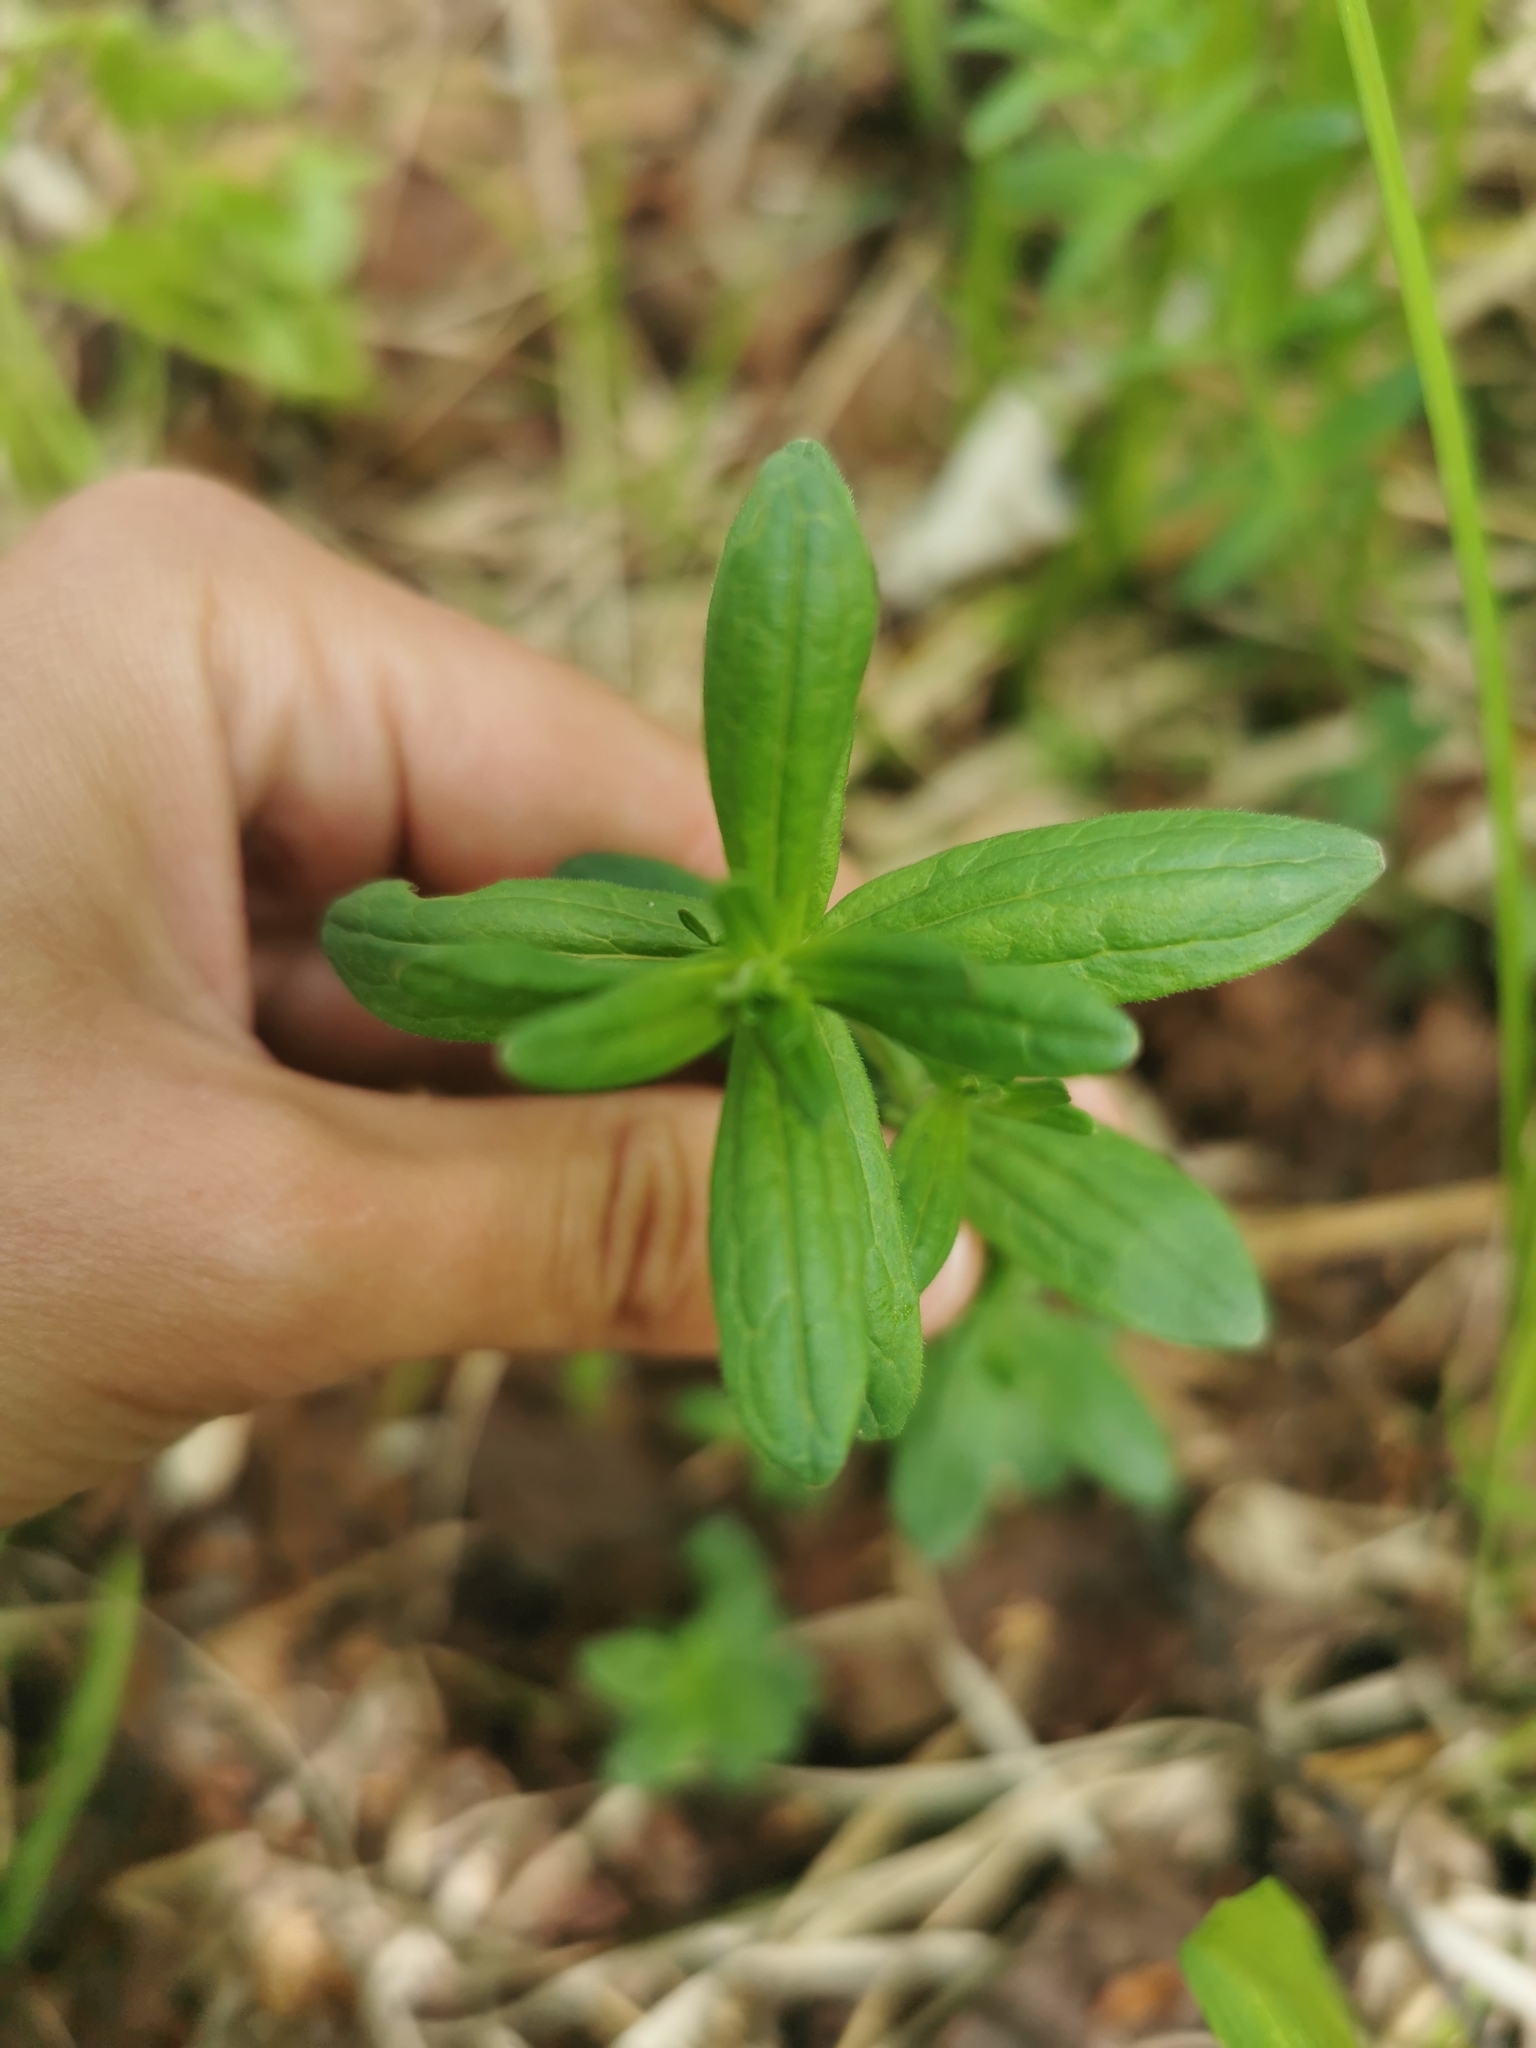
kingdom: Plantae
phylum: Tracheophyta
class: Magnoliopsida
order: Gentianales
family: Rubiaceae
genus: Galium
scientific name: Galium boreale
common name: Northern bedstraw
